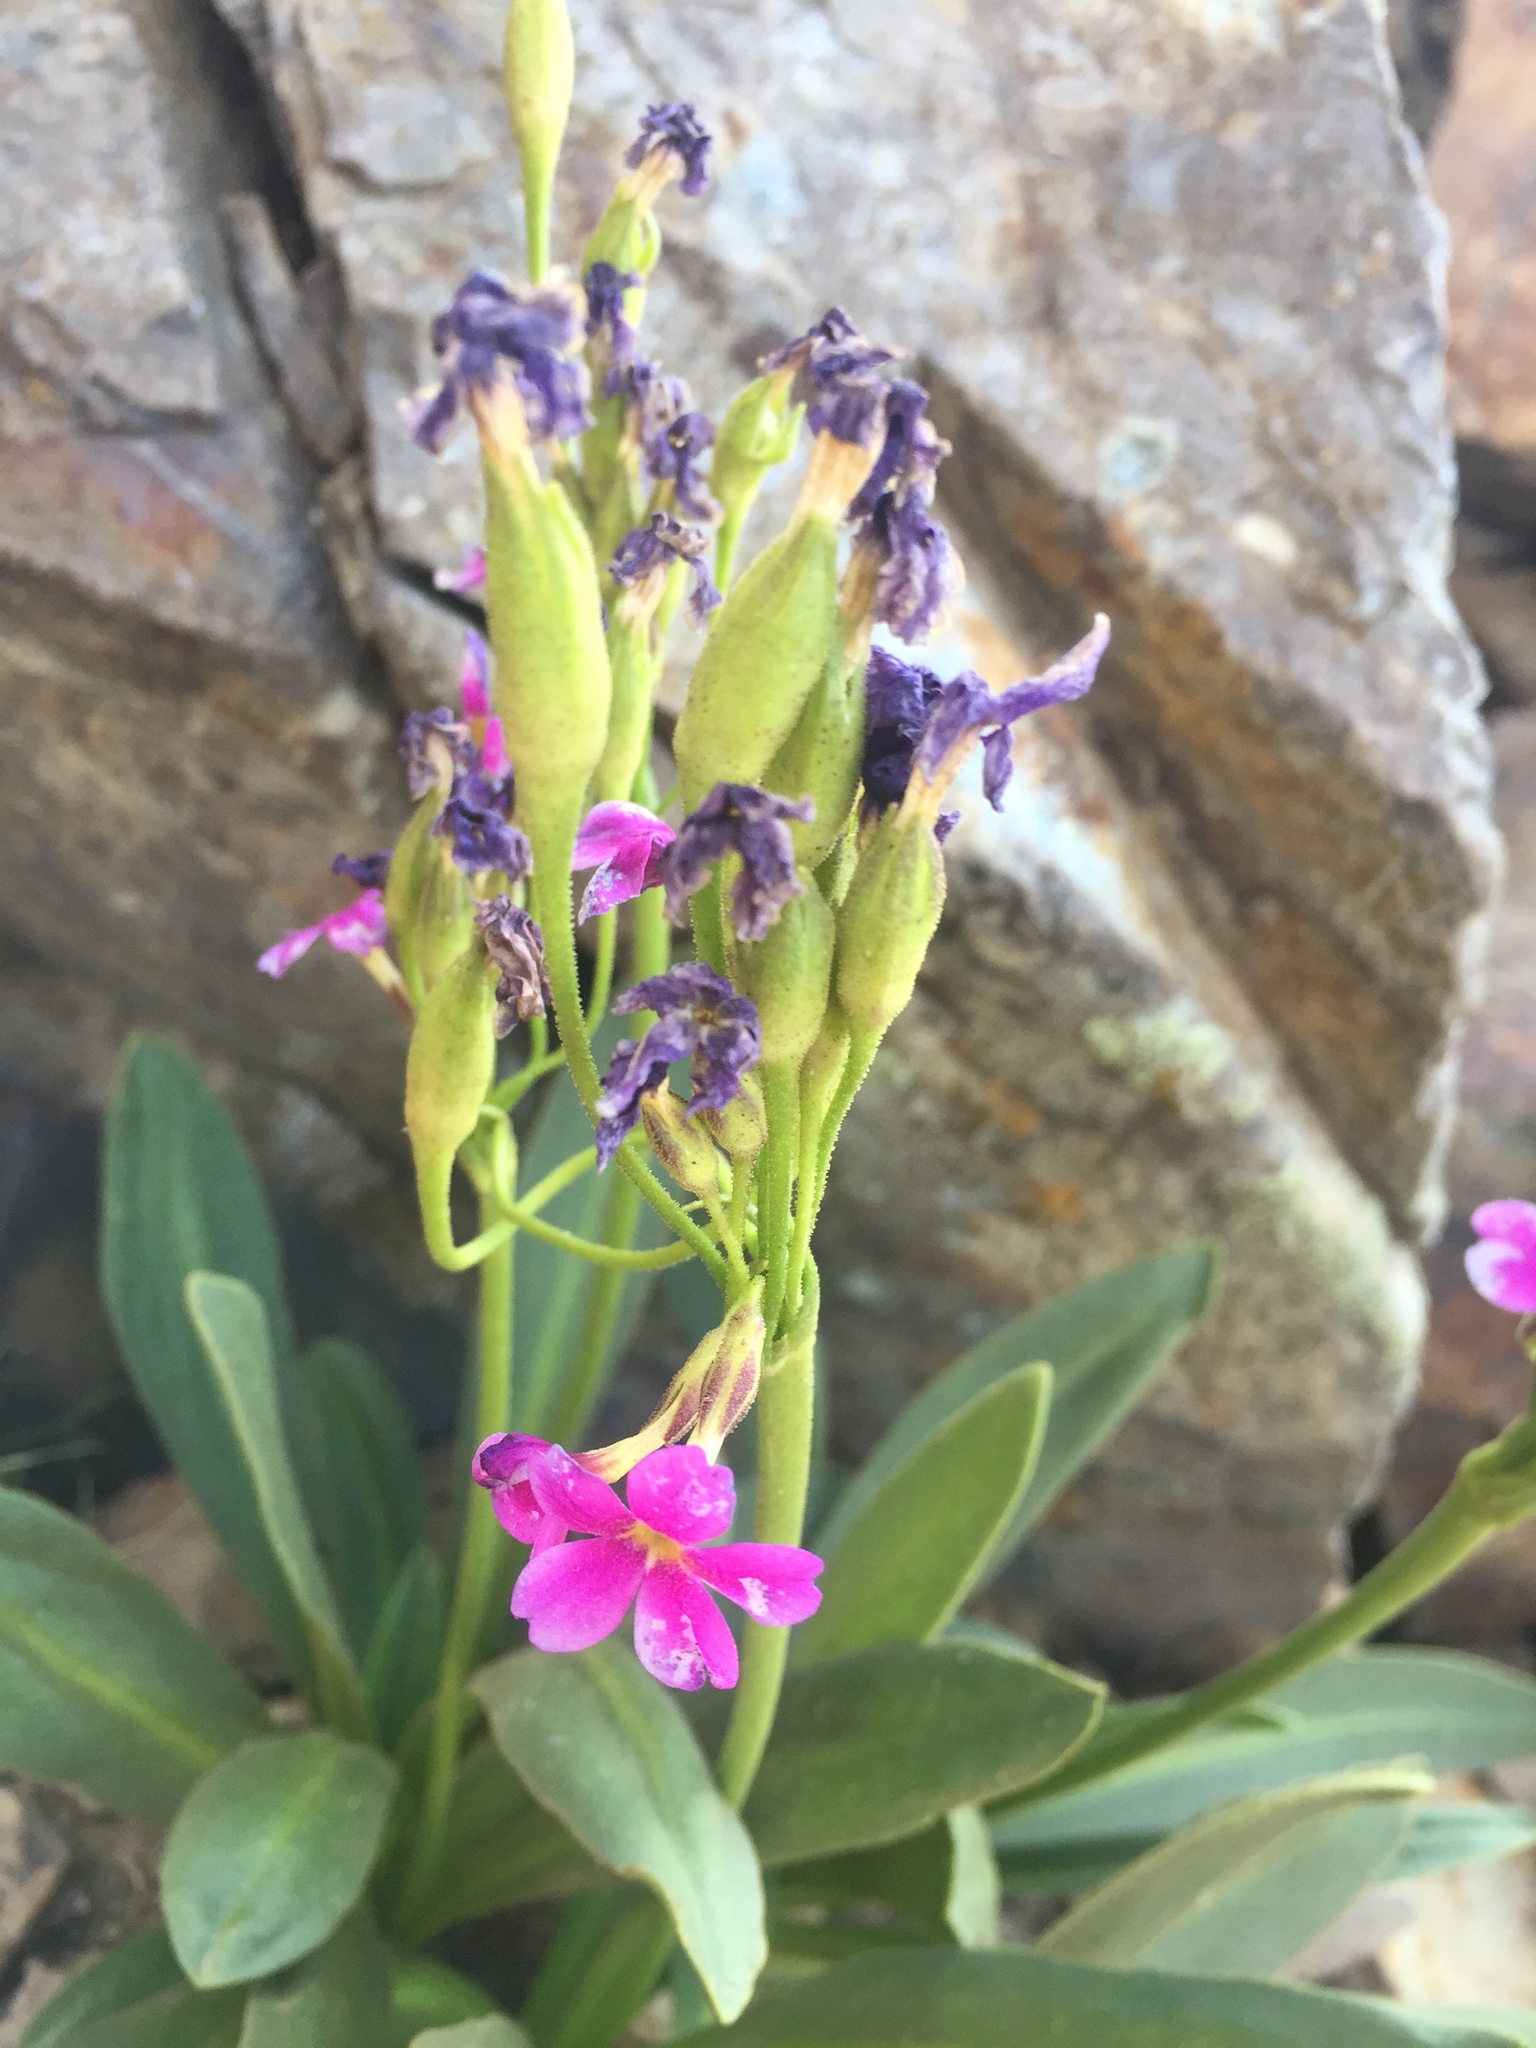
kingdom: Plantae
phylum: Tracheophyta
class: Magnoliopsida
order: Ericales
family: Primulaceae
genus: Primula
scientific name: Primula parryi
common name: Parry's primrose
